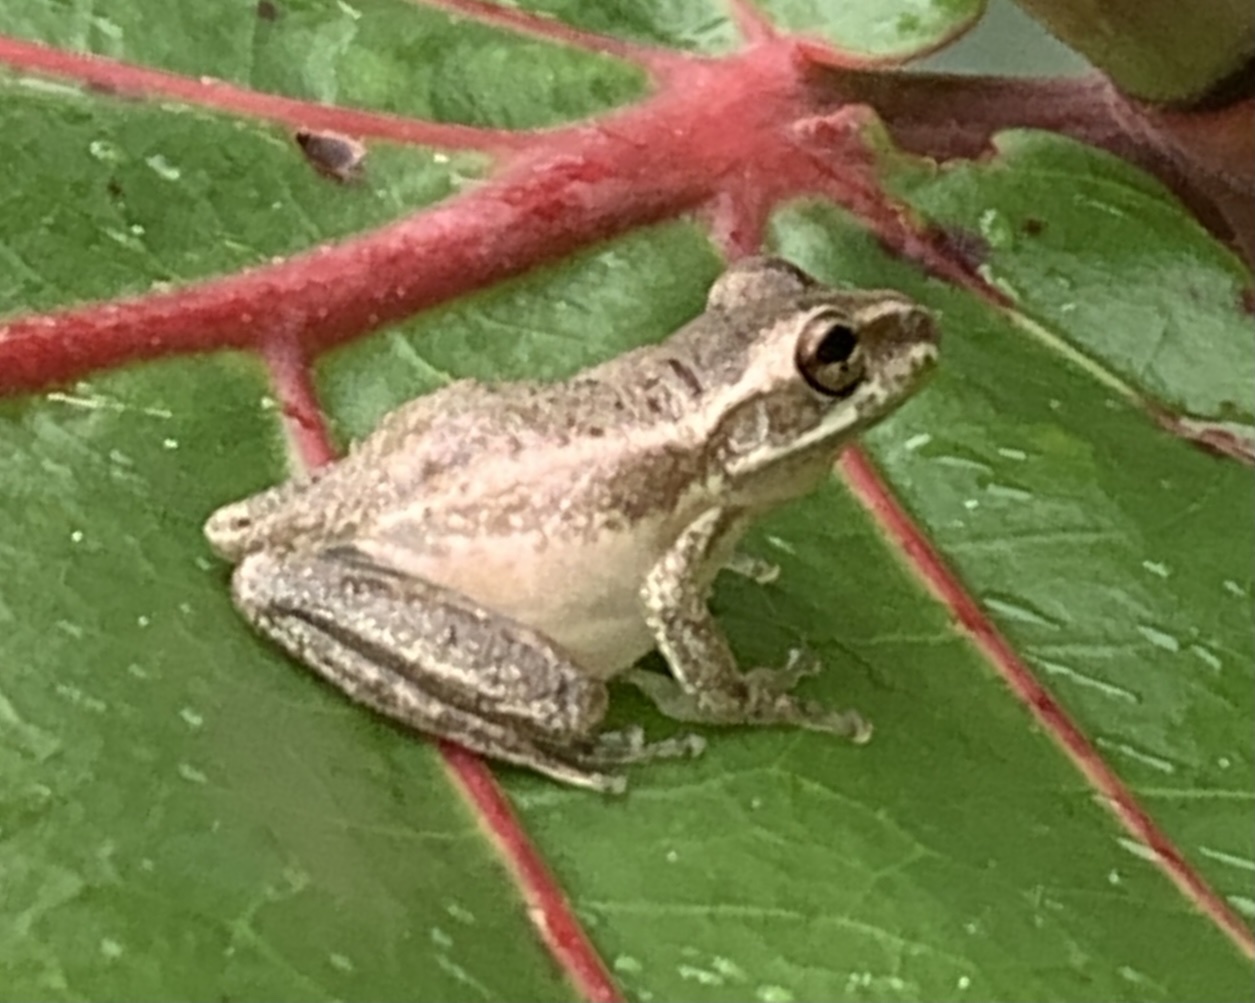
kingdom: Animalia
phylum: Chordata
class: Amphibia
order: Anura
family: Hylidae
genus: Osteopilus
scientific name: Osteopilus septentrionalis
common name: Cuban treefrog
